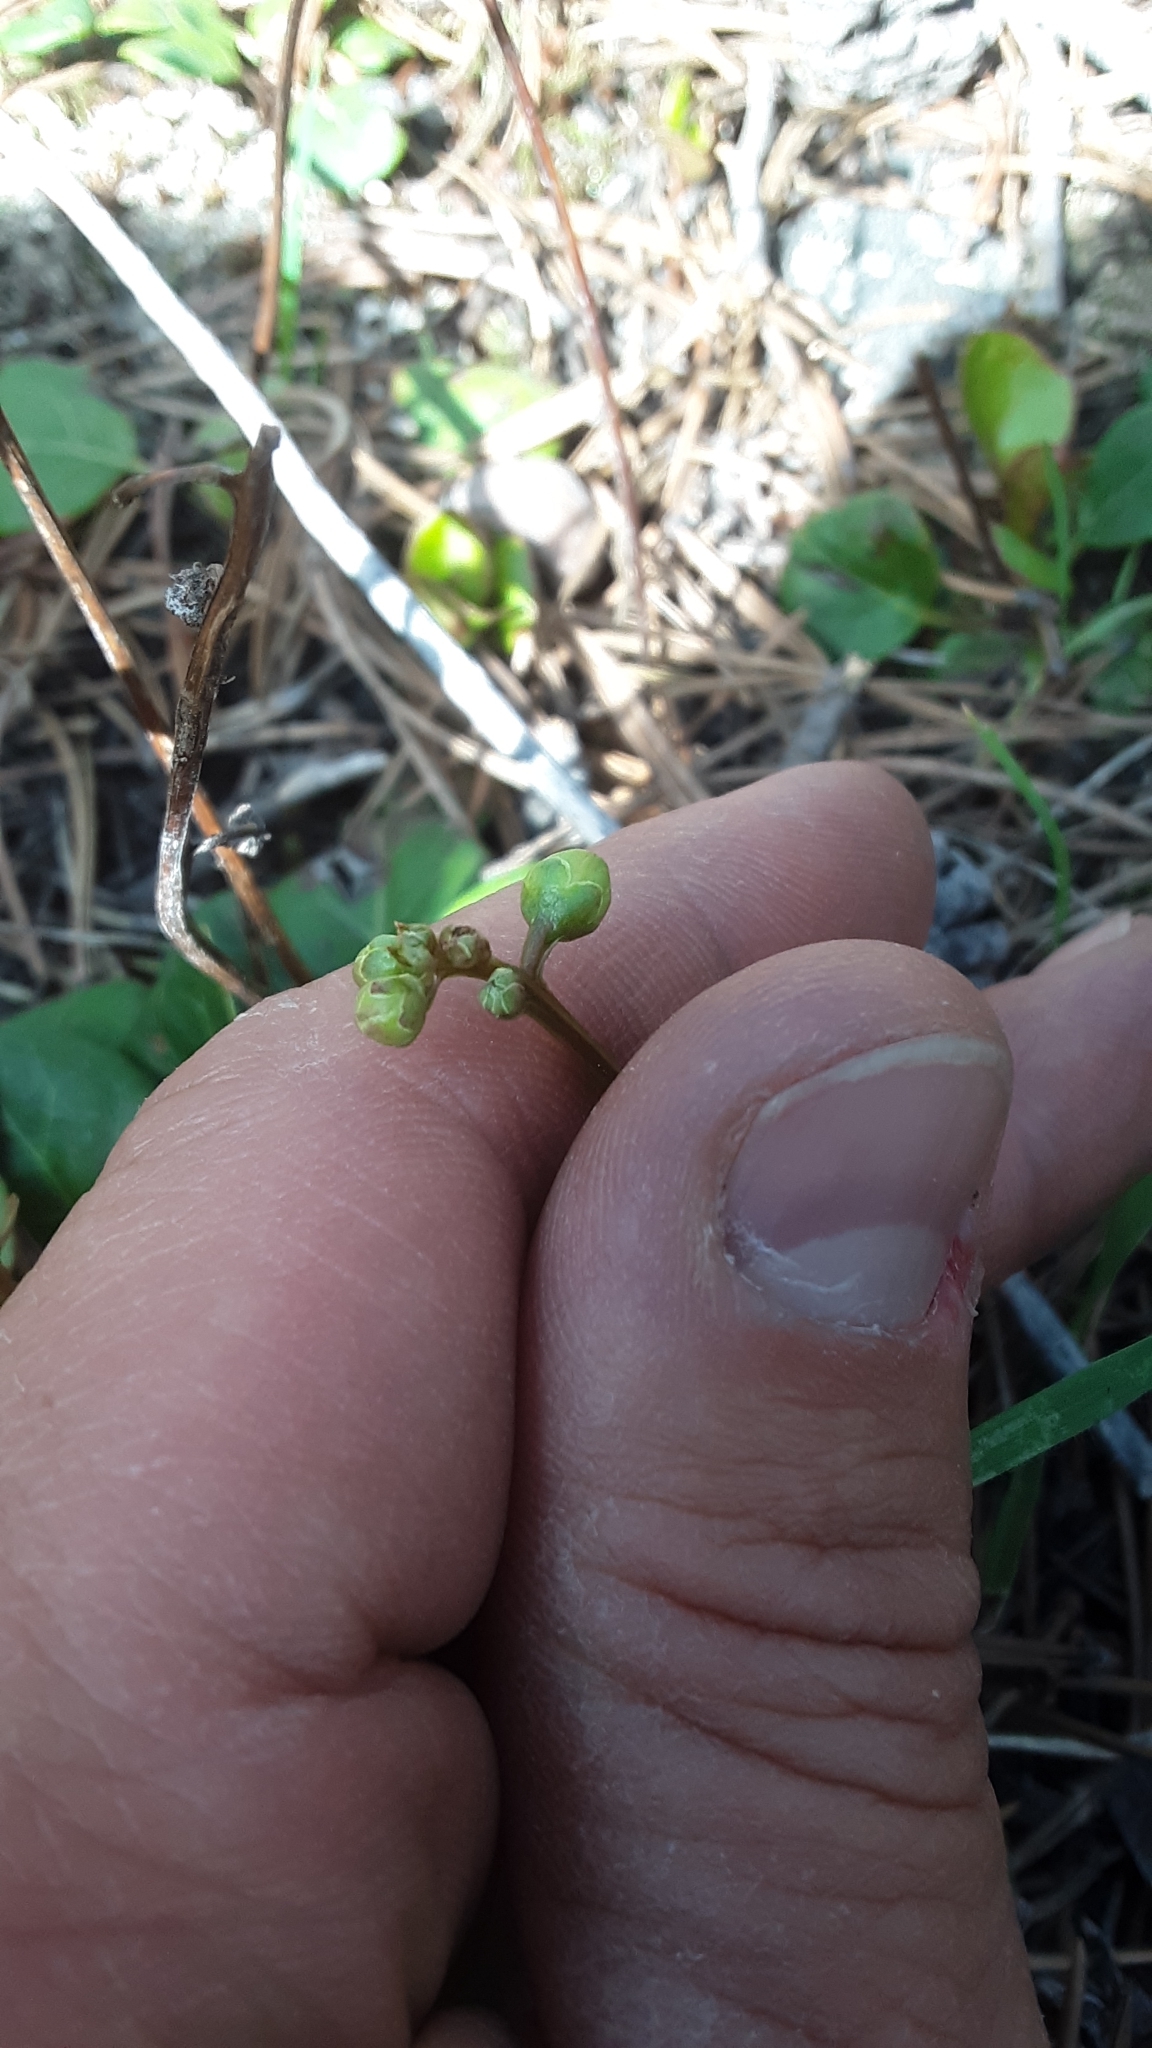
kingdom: Plantae
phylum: Tracheophyta
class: Magnoliopsida
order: Ericales
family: Ericaceae
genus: Pyrola
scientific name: Pyrola chlorantha
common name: Green wintergreen
